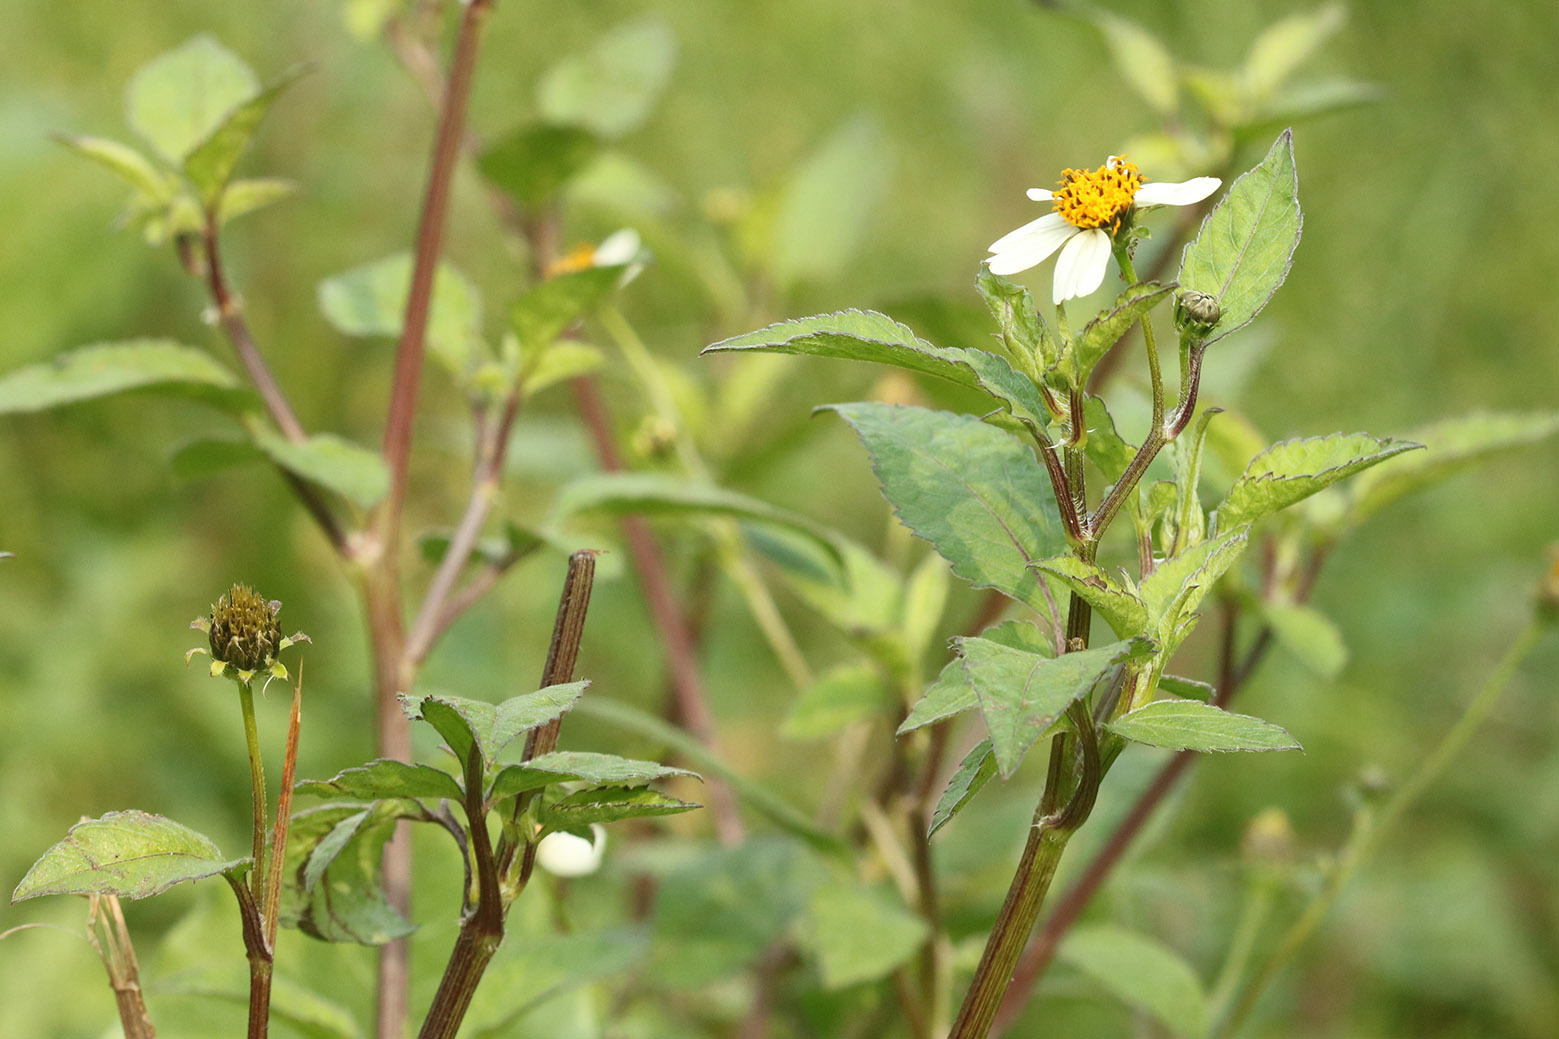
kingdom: Plantae
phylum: Tracheophyta
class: Magnoliopsida
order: Asterales
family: Asteraceae
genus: Bidens
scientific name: Bidens pilosa
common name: Black-jack
